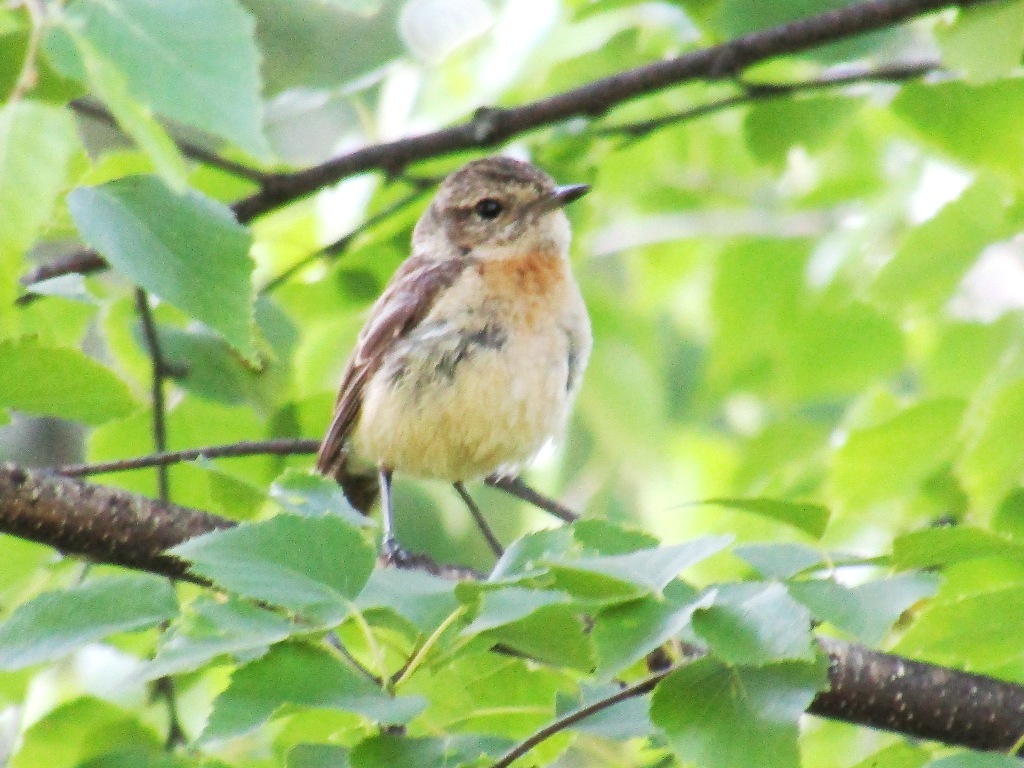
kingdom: Animalia
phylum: Chordata
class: Aves
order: Passeriformes
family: Muscicapidae
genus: Saxicola
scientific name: Saxicola maurus
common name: Siberian stonechat
